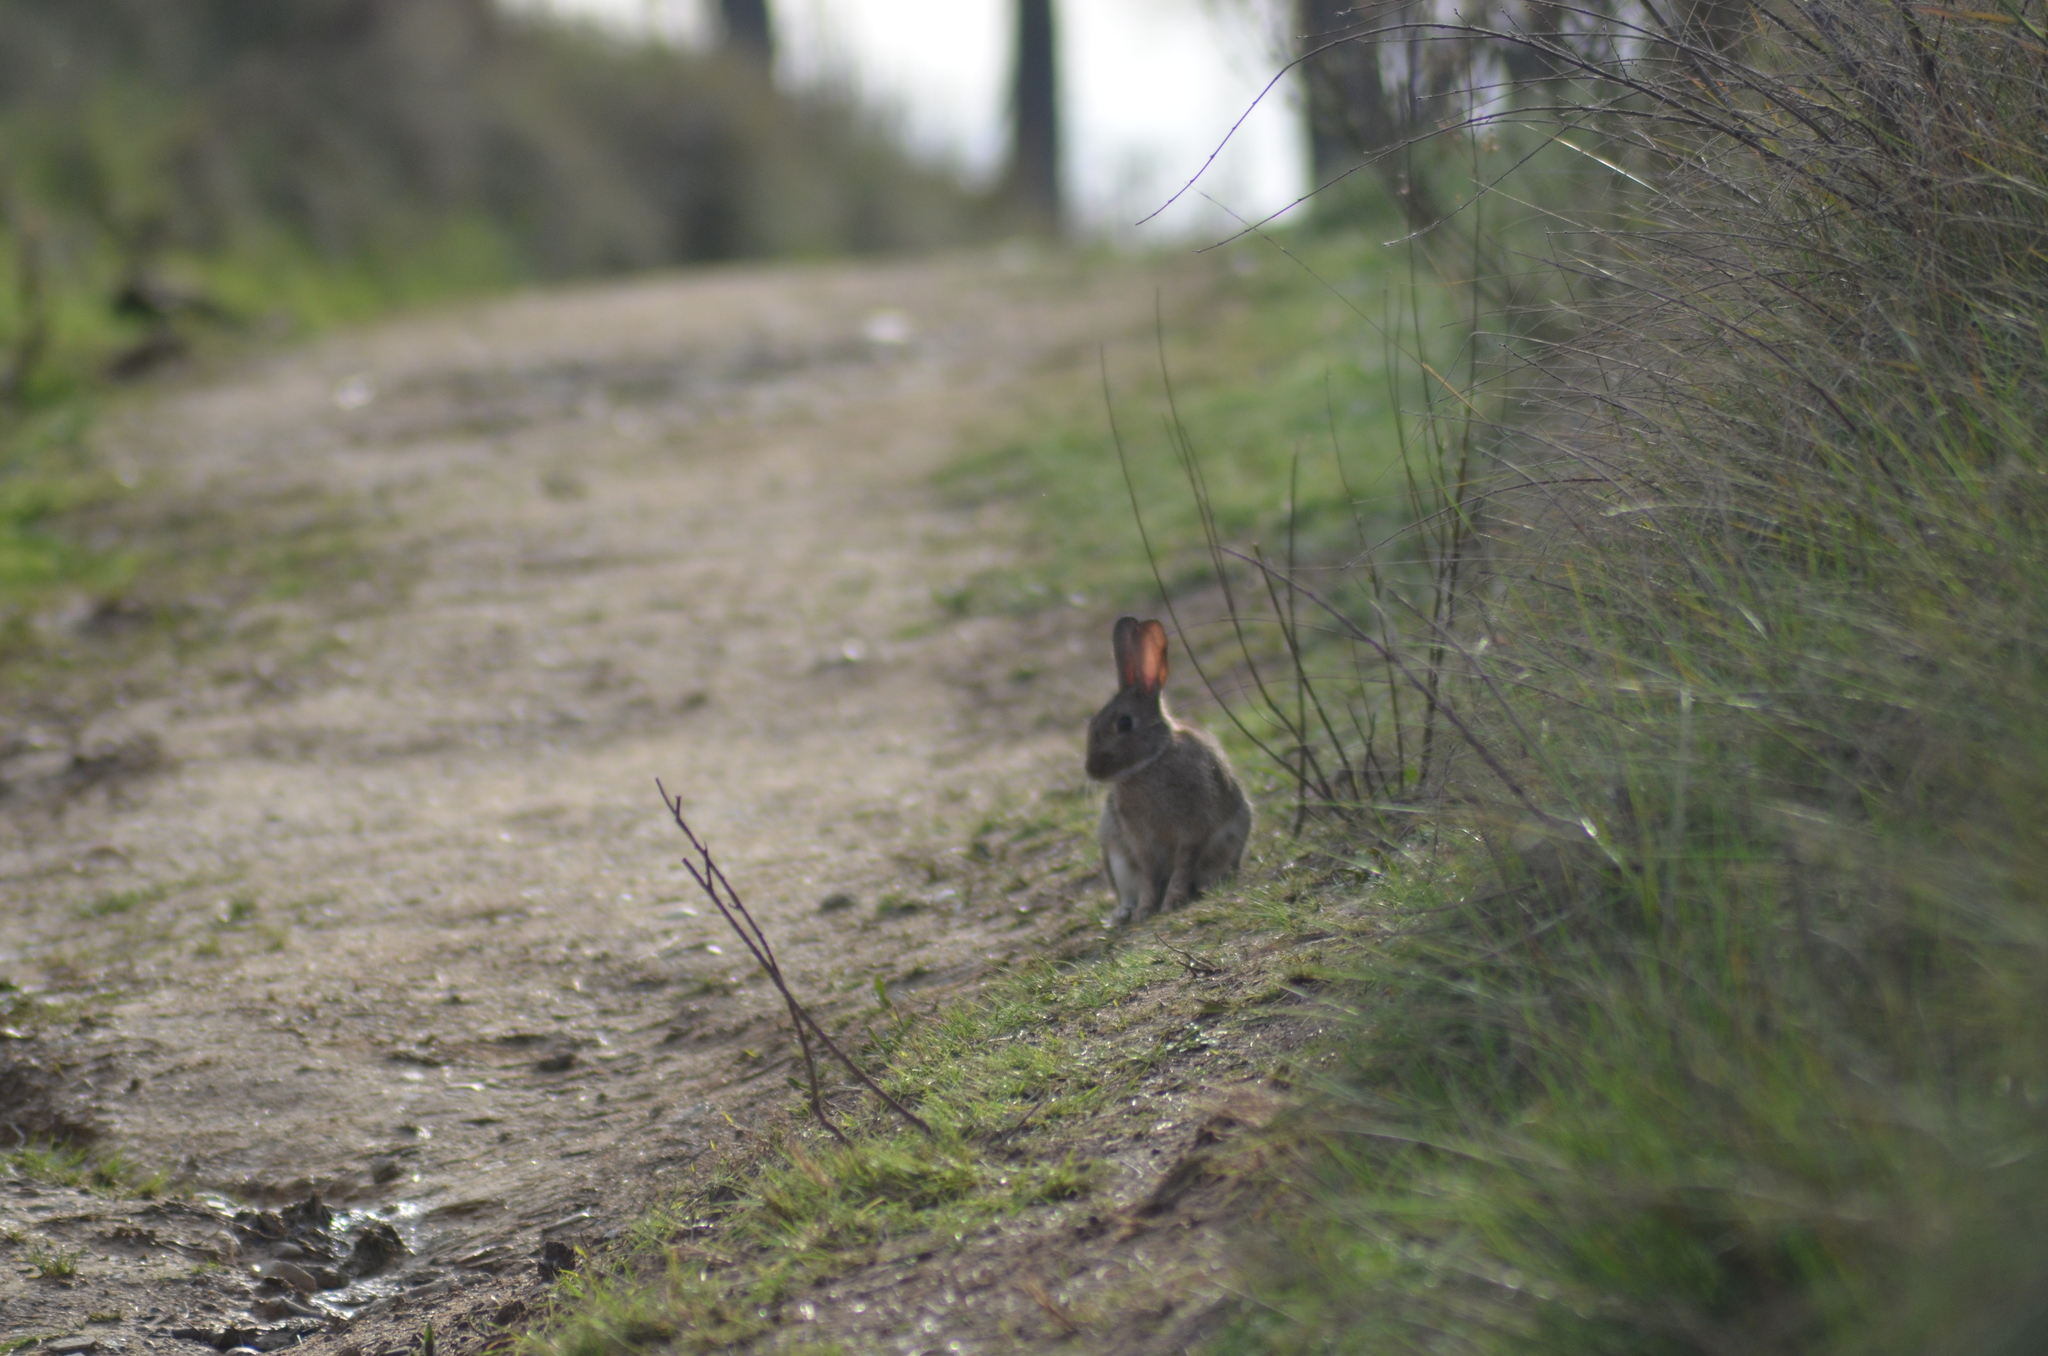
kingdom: Animalia
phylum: Chordata
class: Mammalia
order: Lagomorpha
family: Leporidae
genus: Oryctolagus
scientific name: Oryctolagus cuniculus
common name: European rabbit
